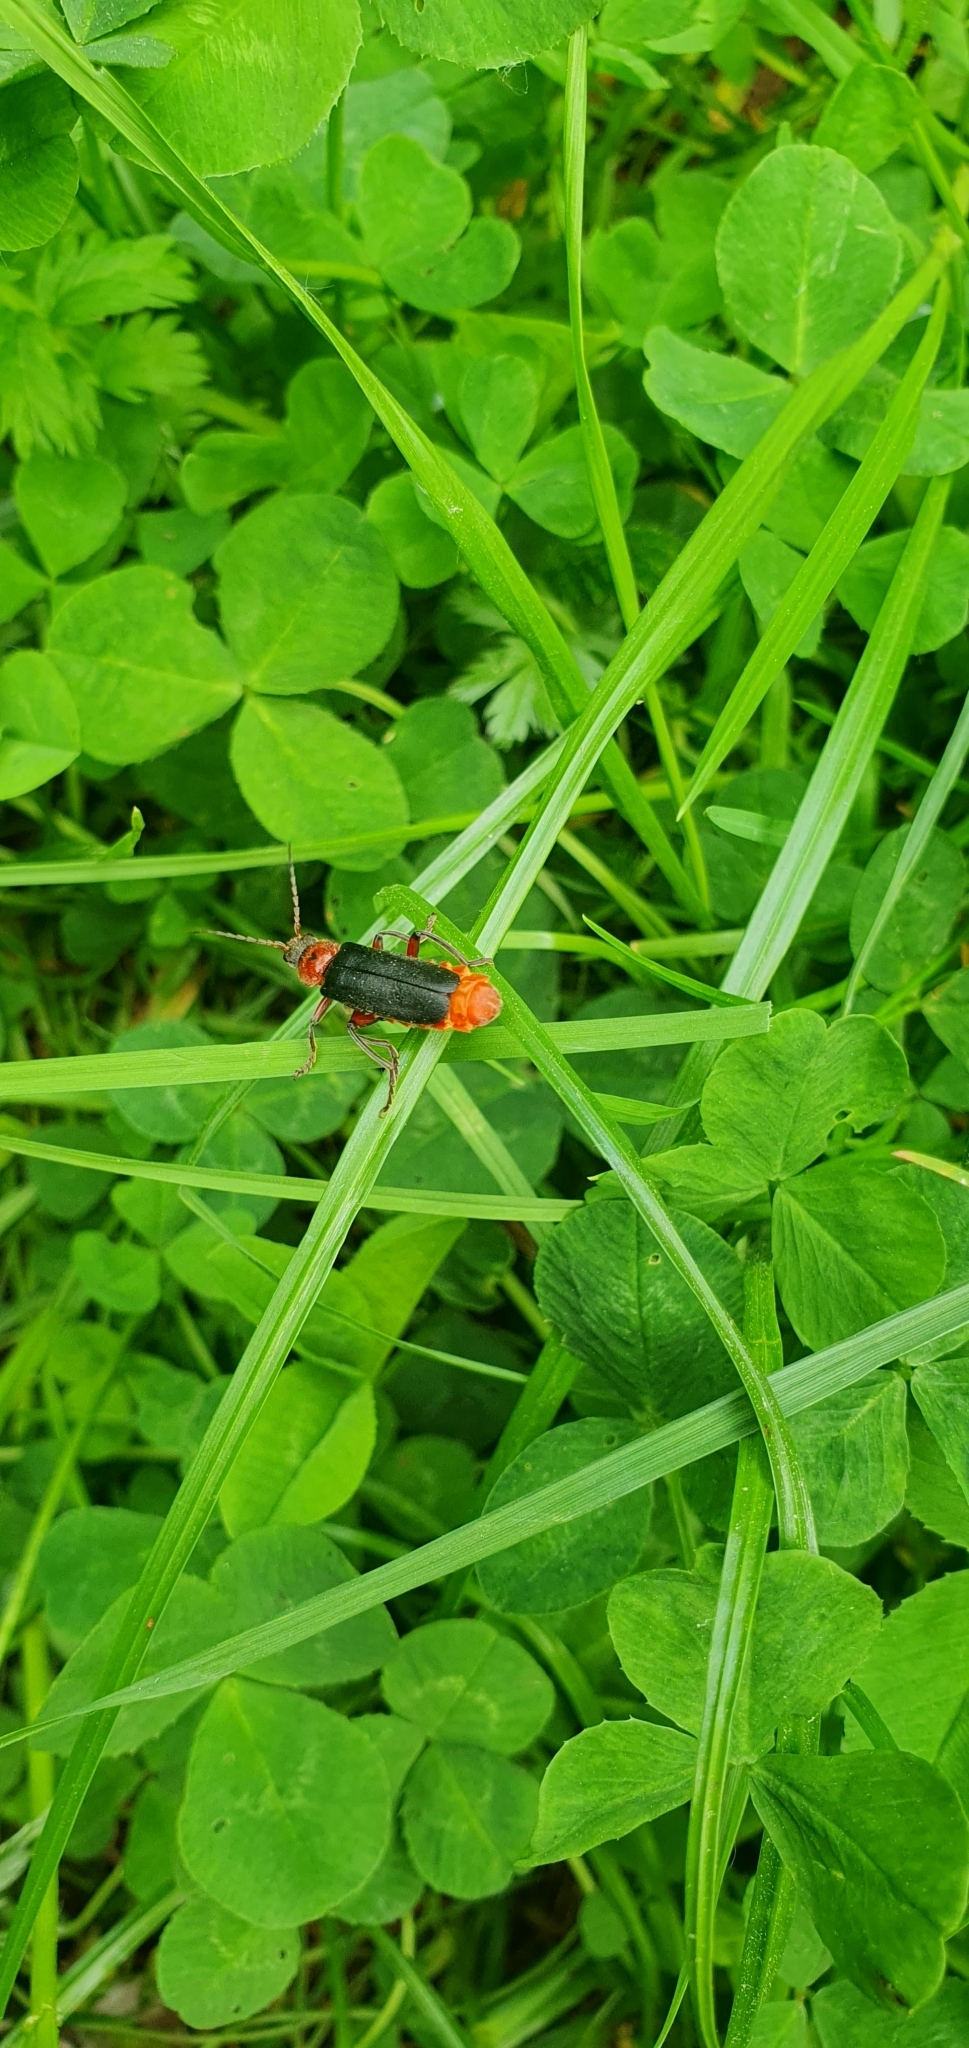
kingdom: Animalia
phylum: Arthropoda
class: Insecta
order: Coleoptera
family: Cantharidae
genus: Cantharis
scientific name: Cantharis rustica
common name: Soldier beetle
